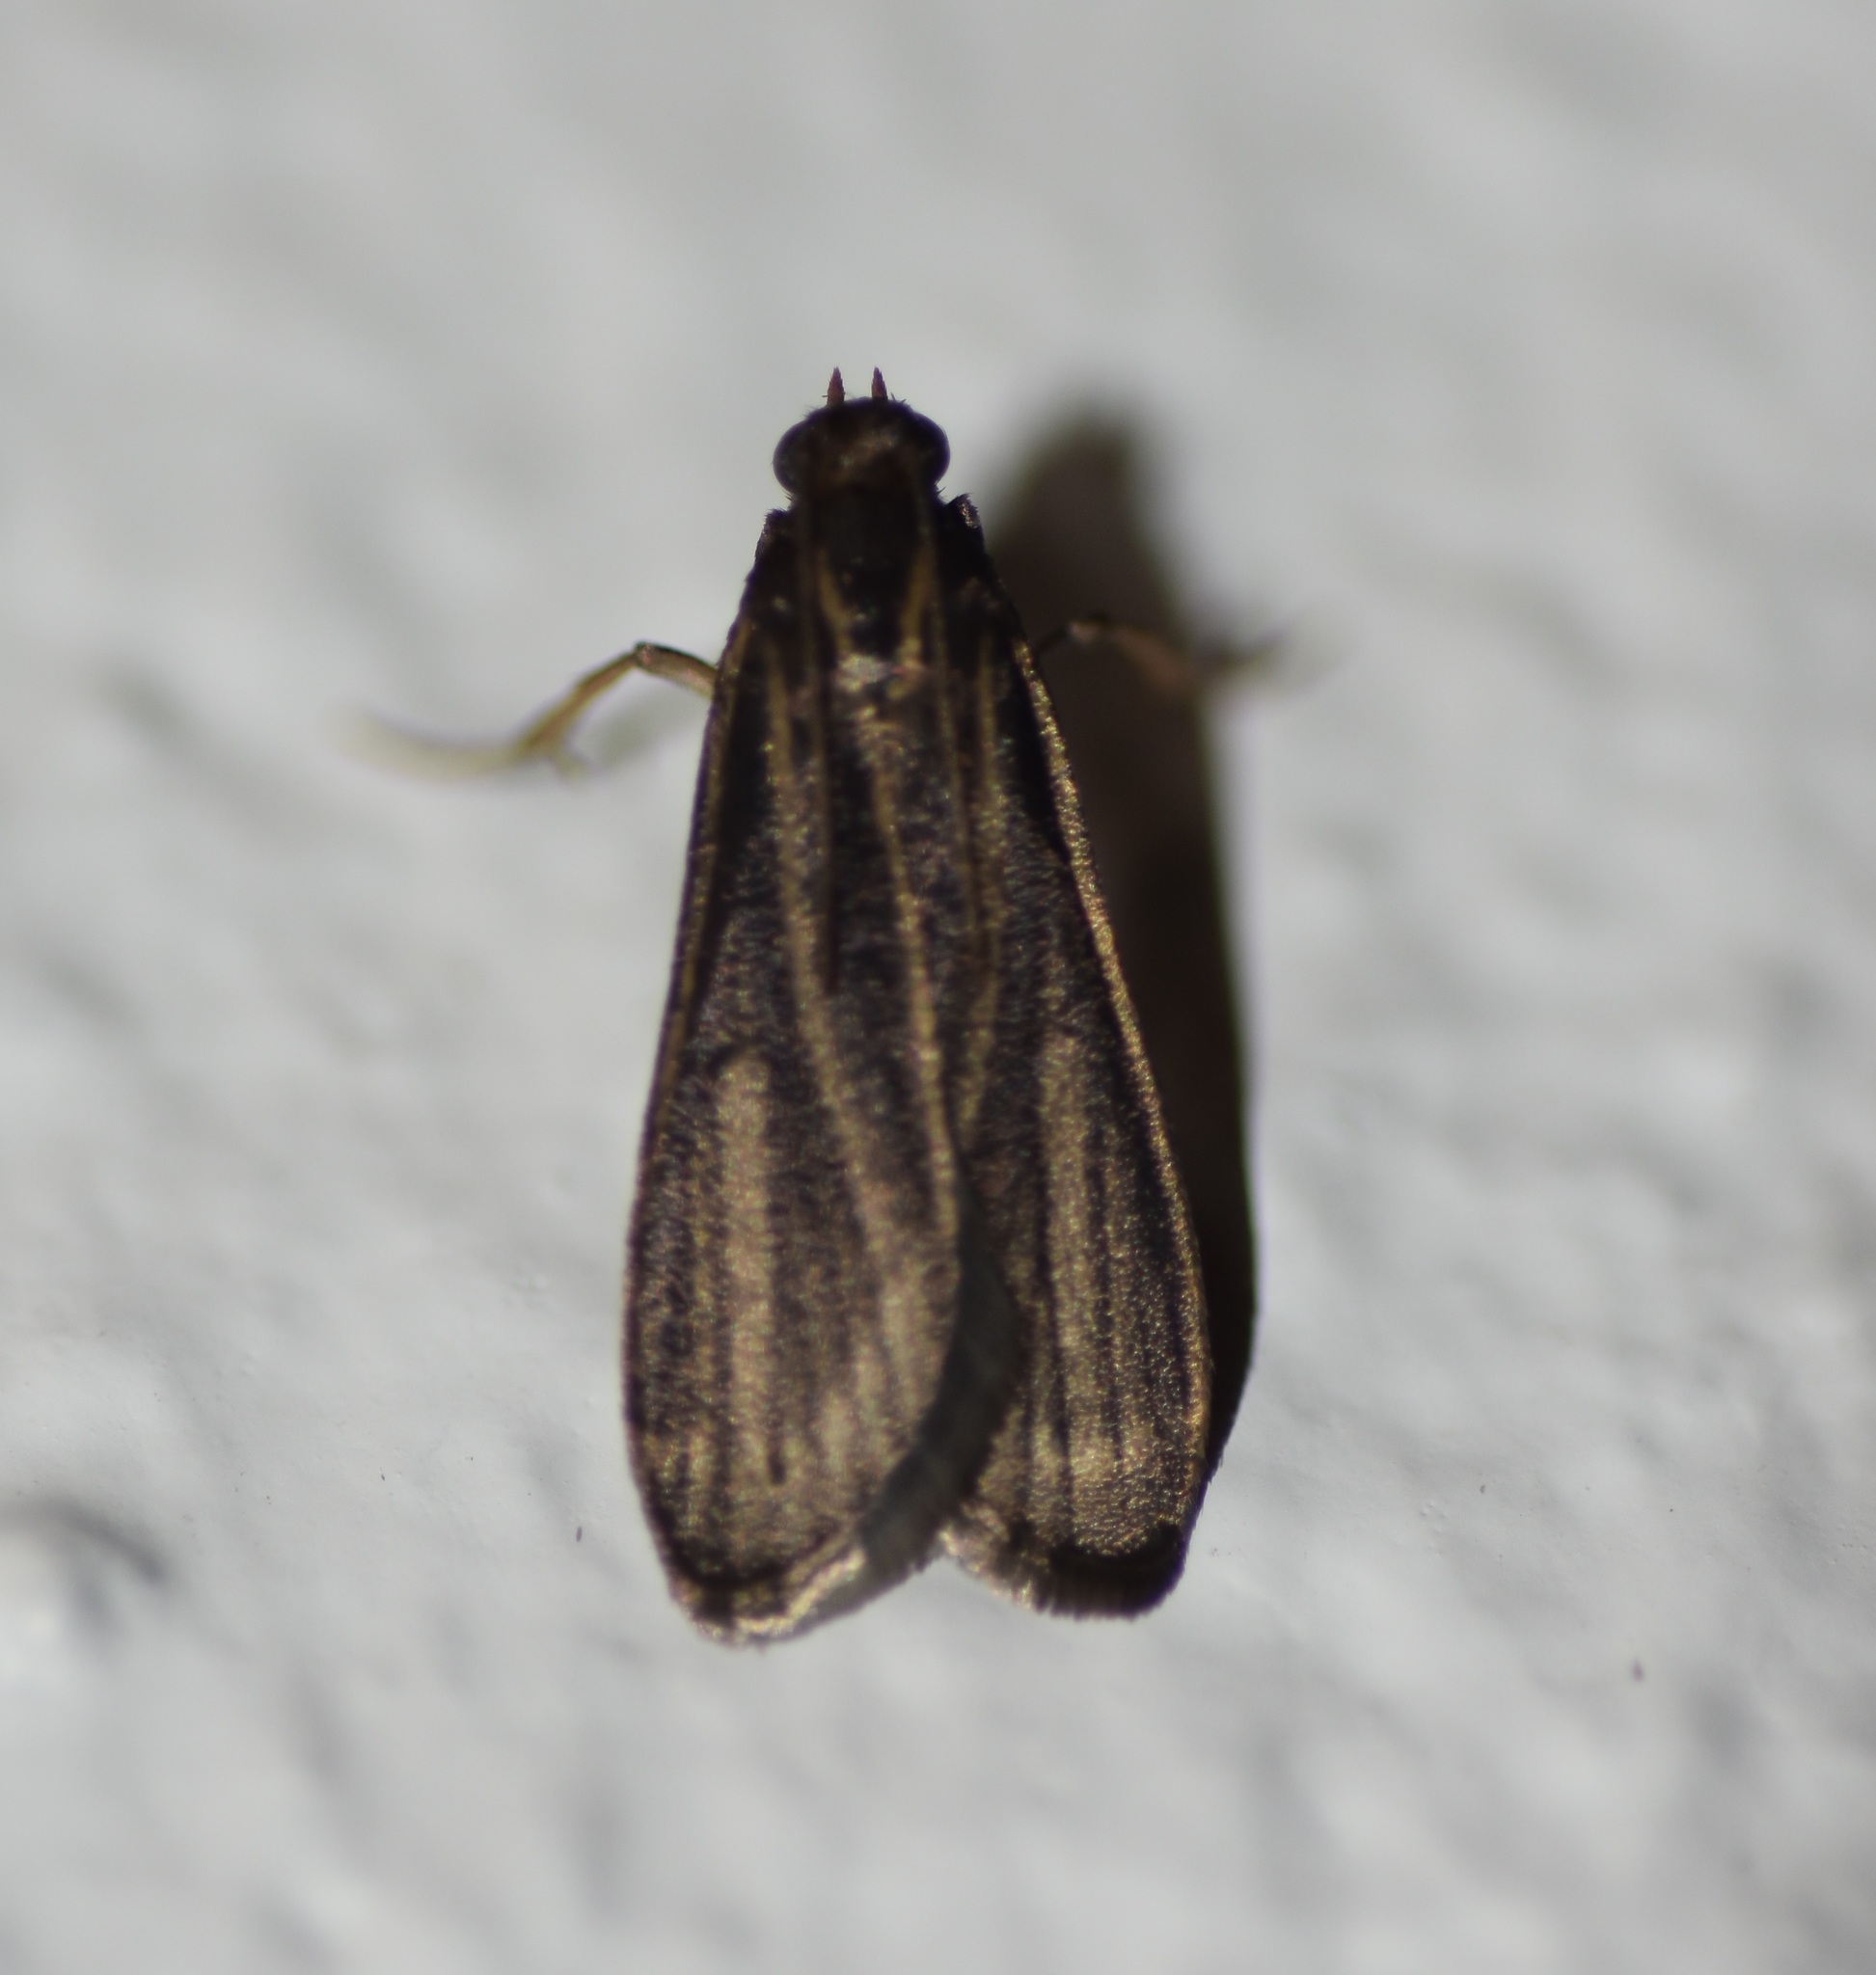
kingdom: Animalia
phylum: Arthropoda
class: Insecta
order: Lepidoptera
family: Pyralidae
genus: Cryptoses
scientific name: Cryptoses choloepi
